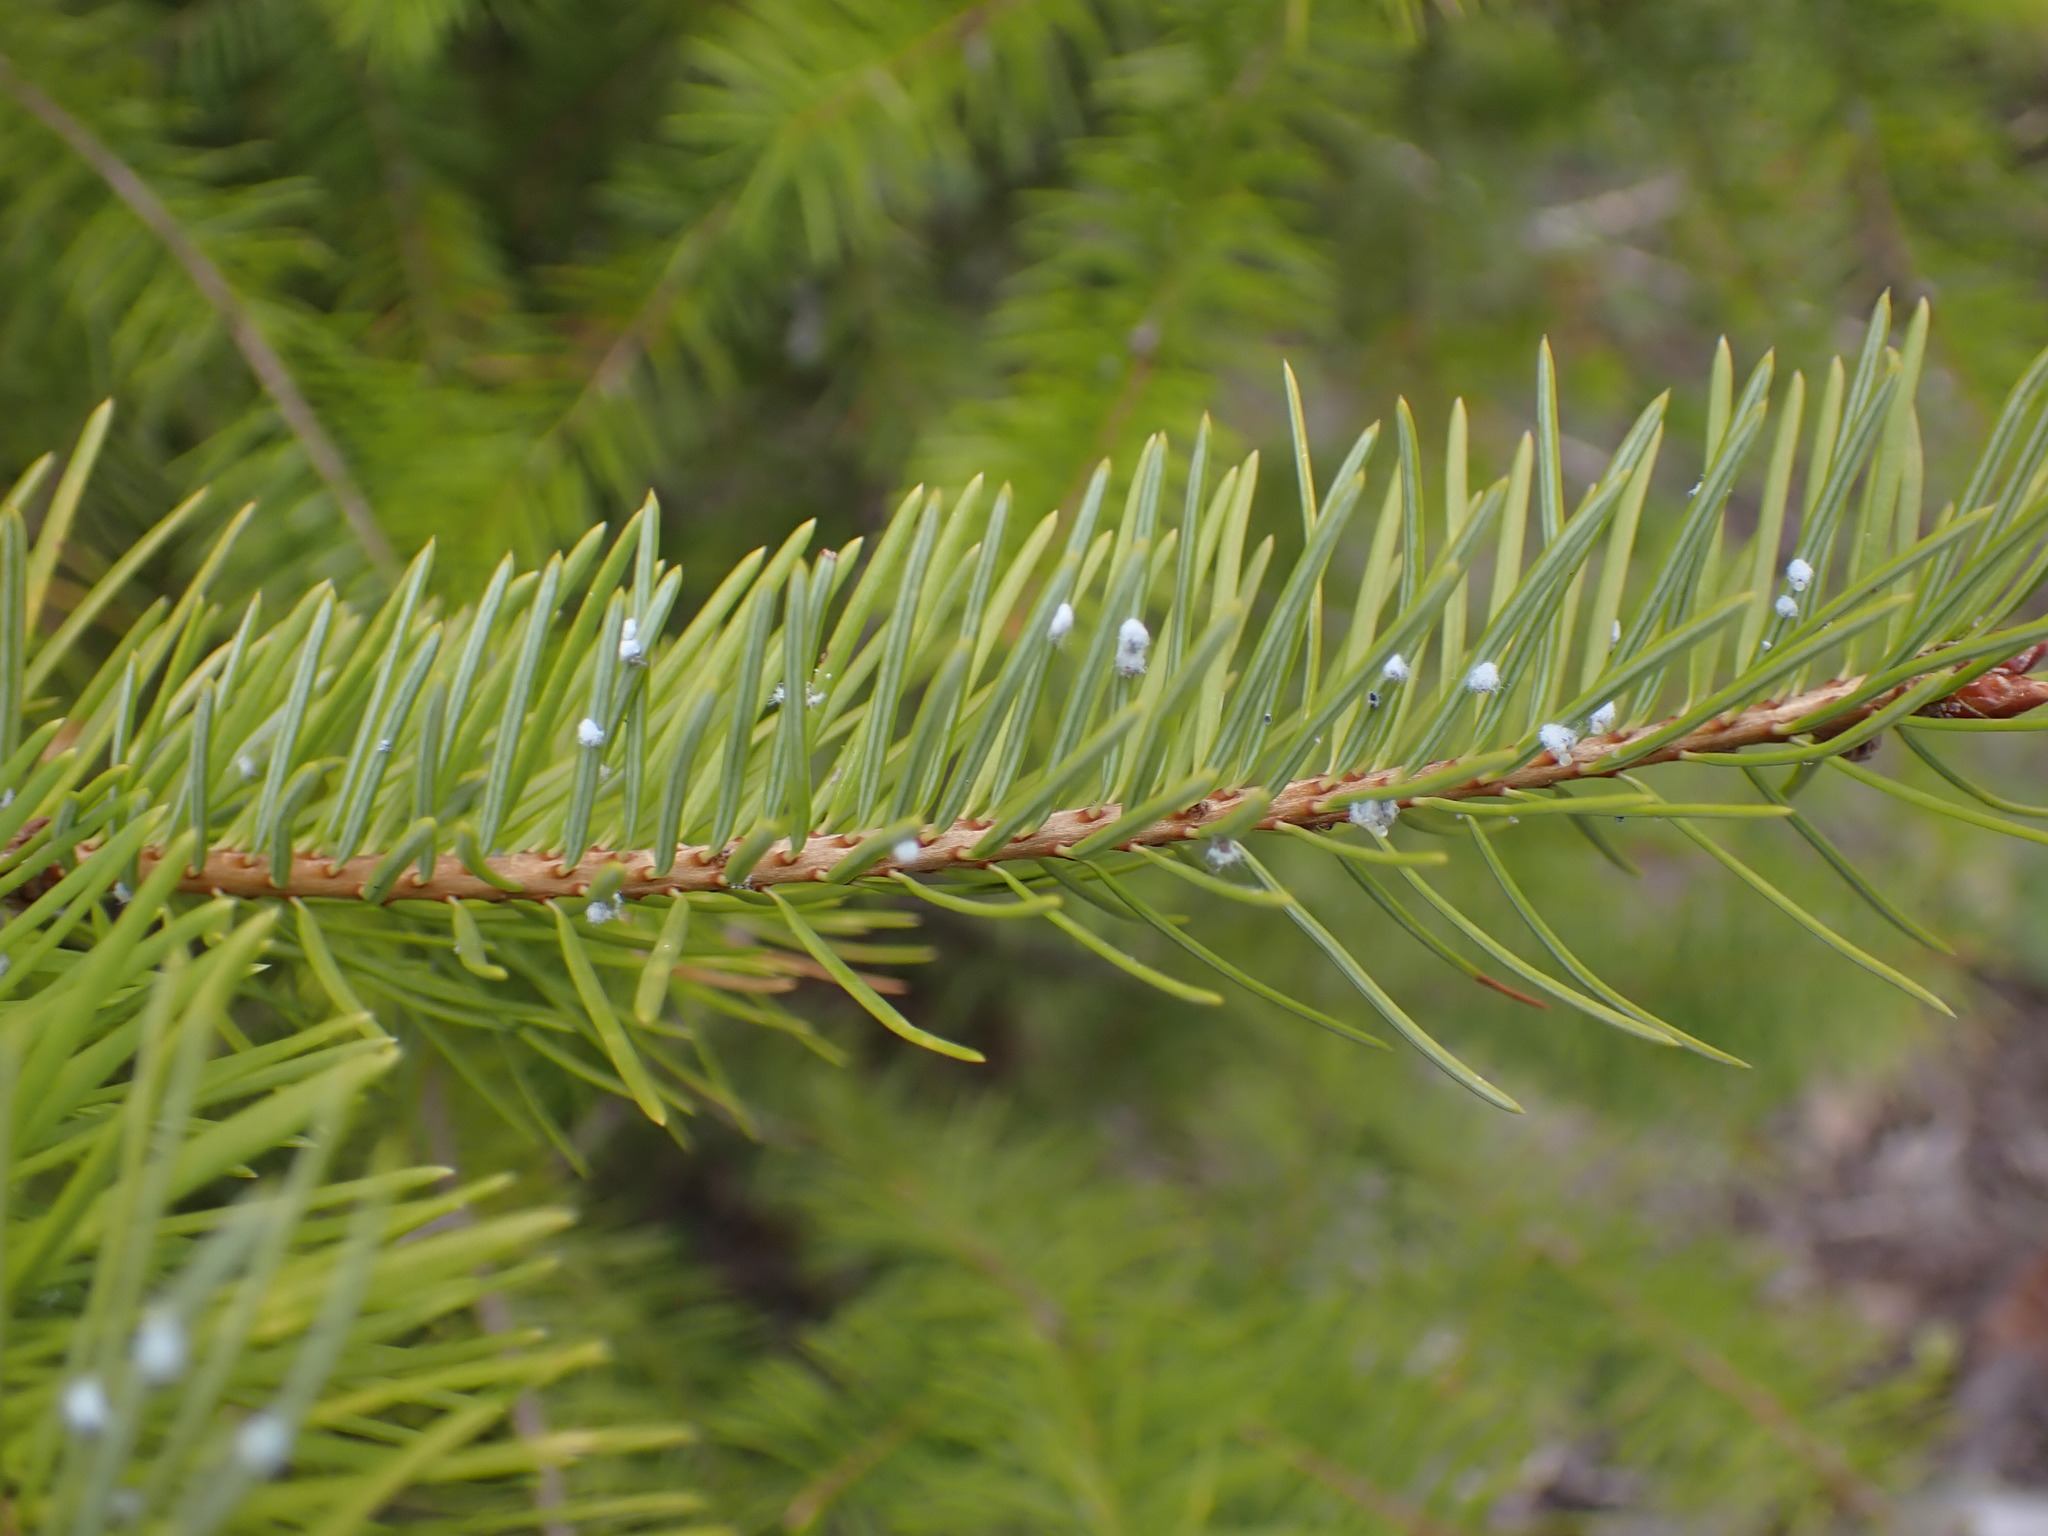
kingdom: Animalia
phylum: Arthropoda
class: Insecta
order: Hemiptera
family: Adelgidae
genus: Adelges
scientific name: Adelges cooleyi
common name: Cooley spruce gall adelgid
